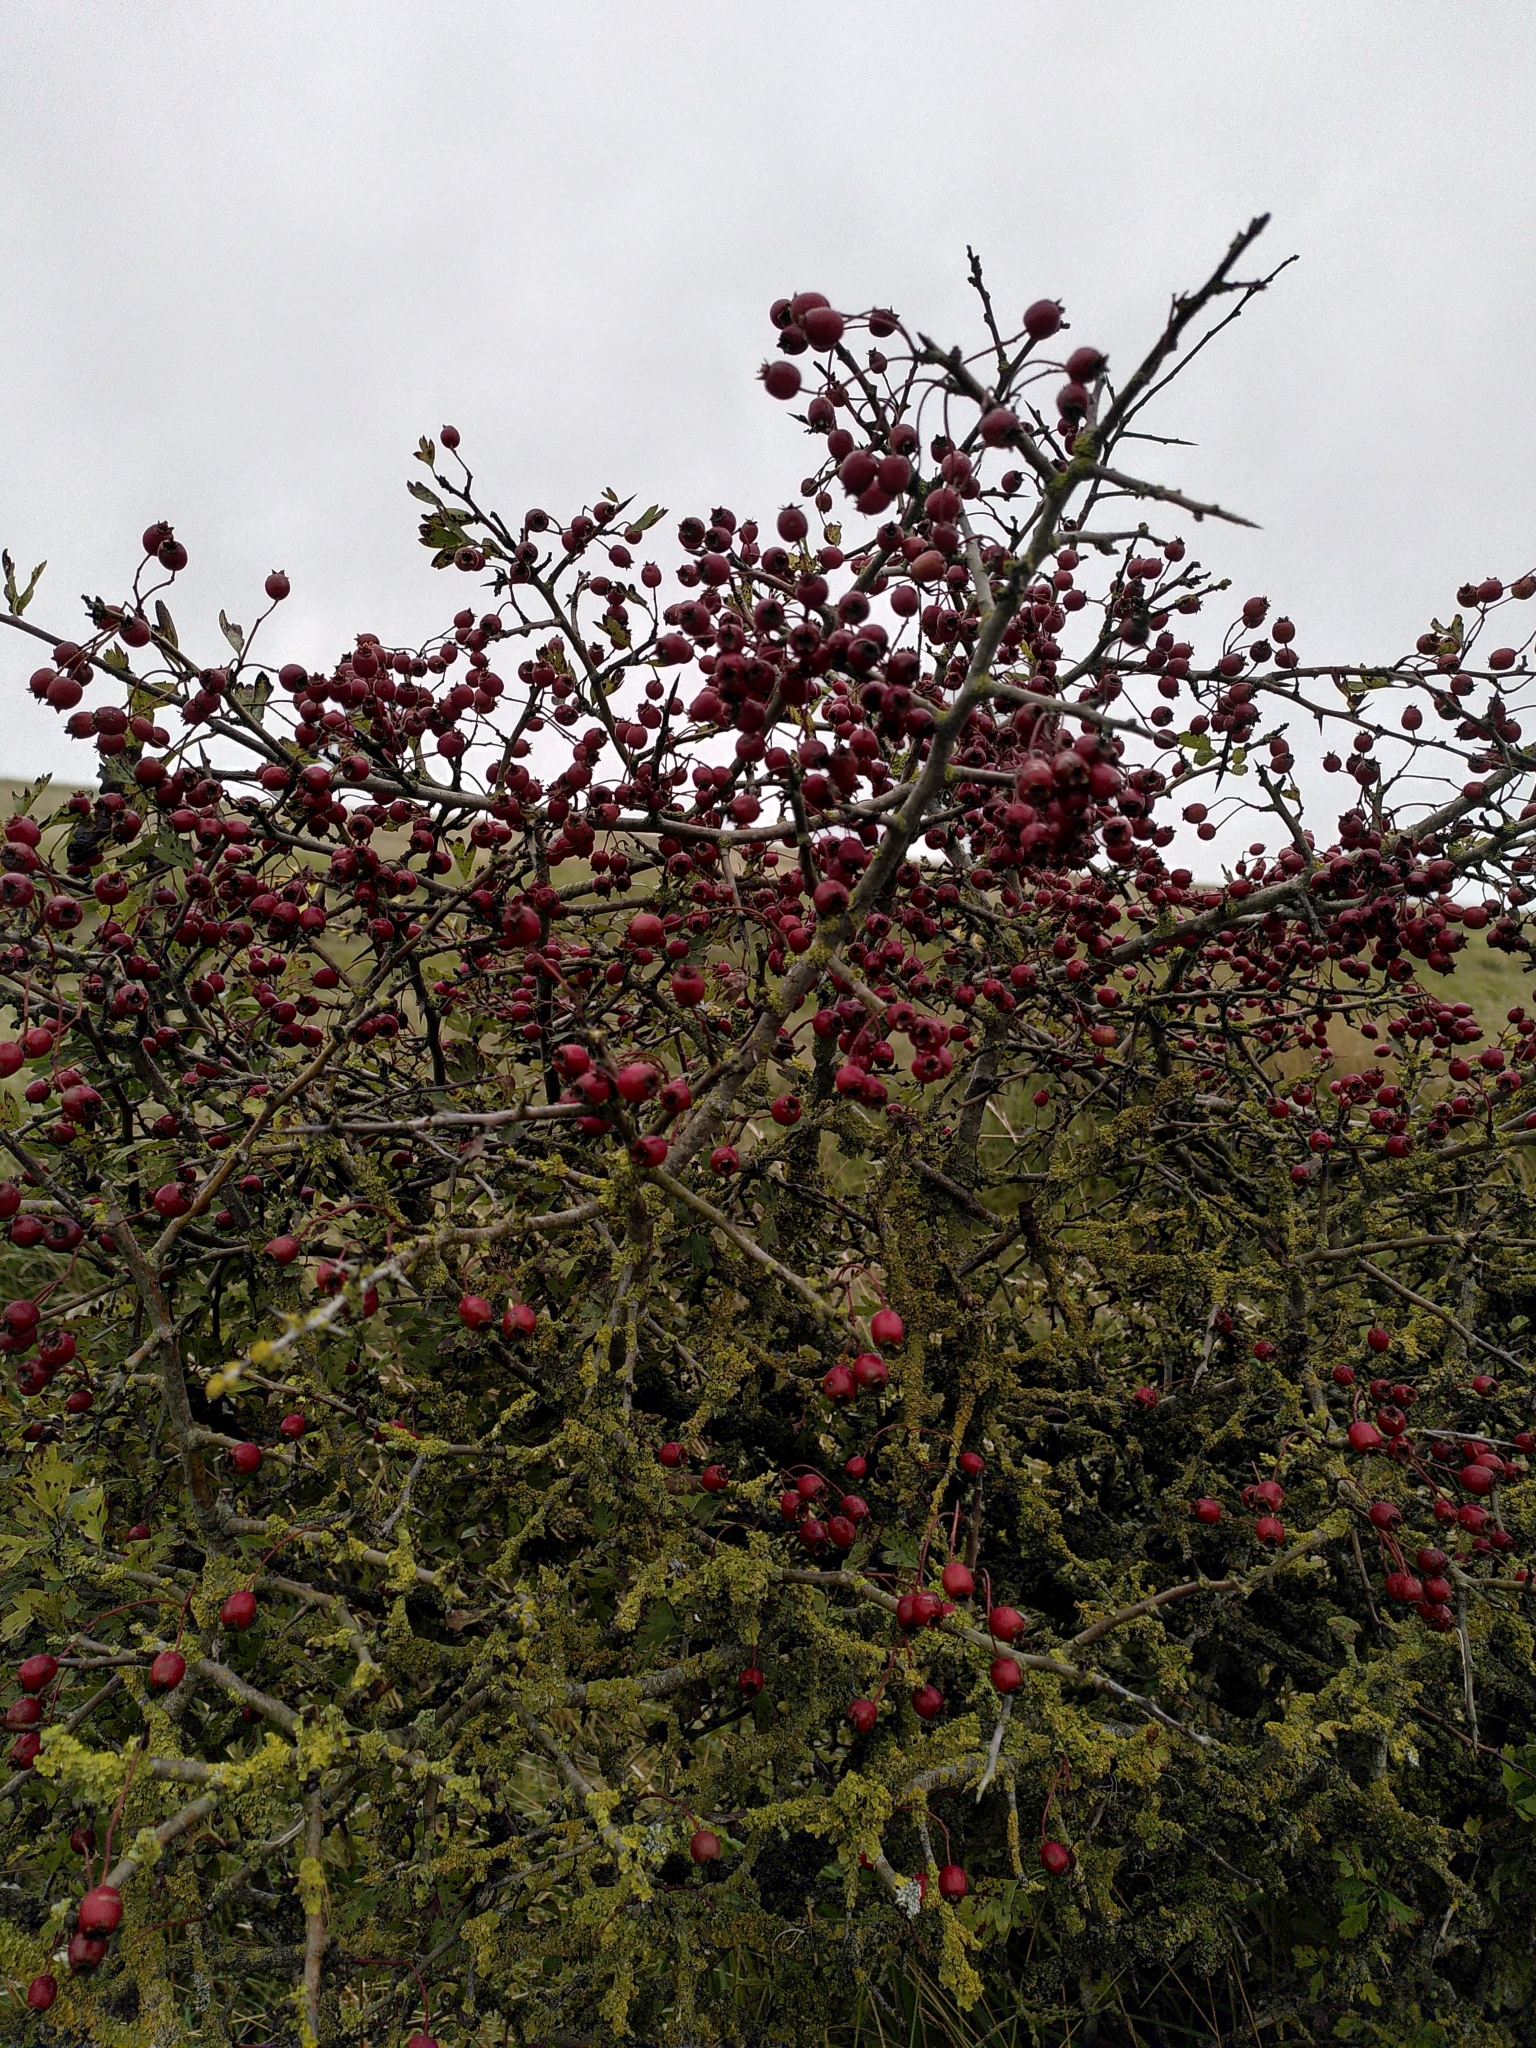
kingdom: Plantae
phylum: Tracheophyta
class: Magnoliopsida
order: Rosales
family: Rosaceae
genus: Crataegus
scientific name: Crataegus monogyna
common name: Hawthorn
